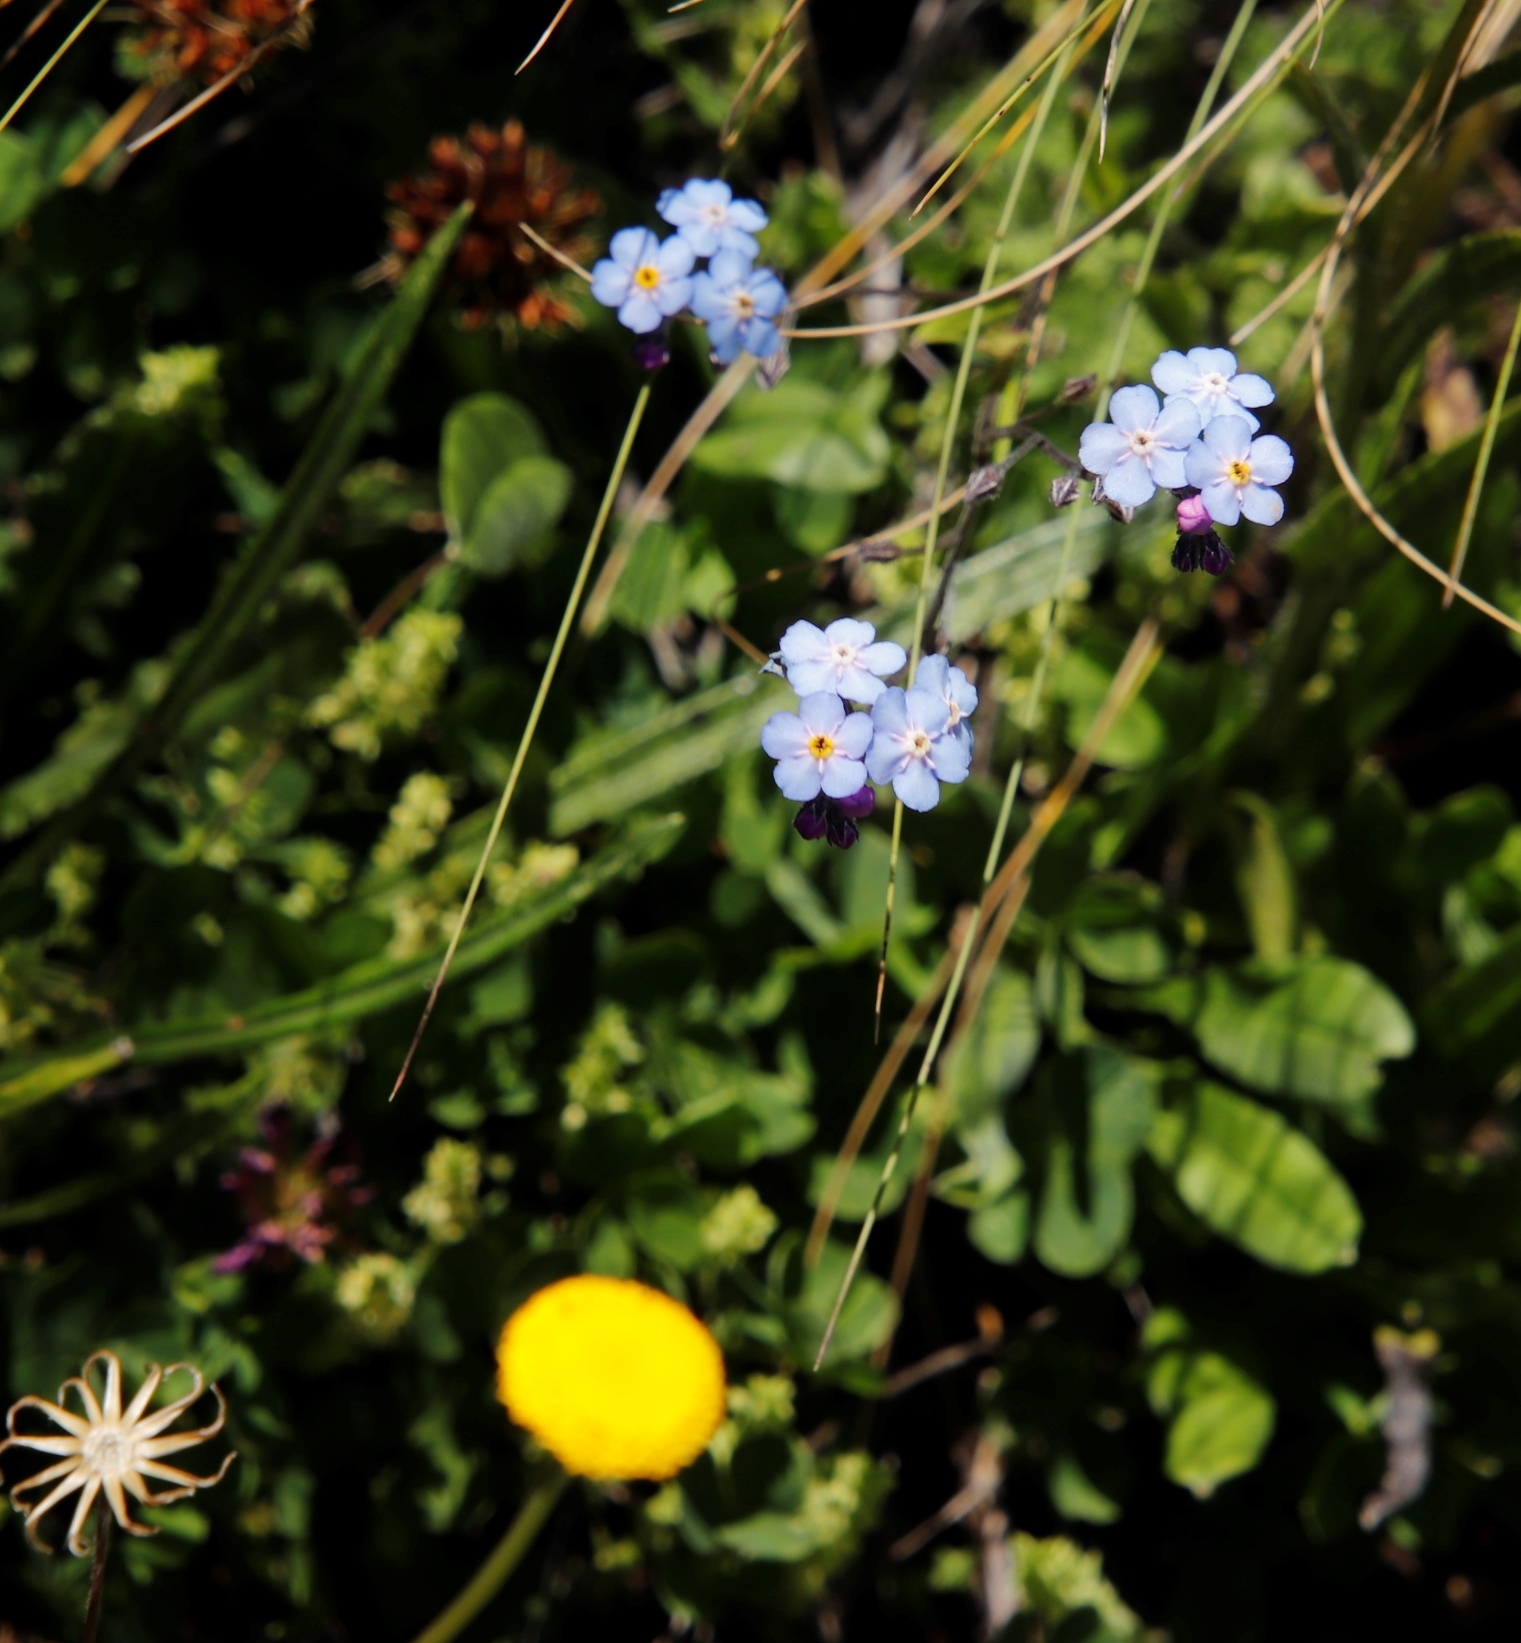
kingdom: Plantae
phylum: Tracheophyta
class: Magnoliopsida
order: Boraginales
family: Boraginaceae
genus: Myosotis
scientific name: Myosotis semiamplexicaulis
